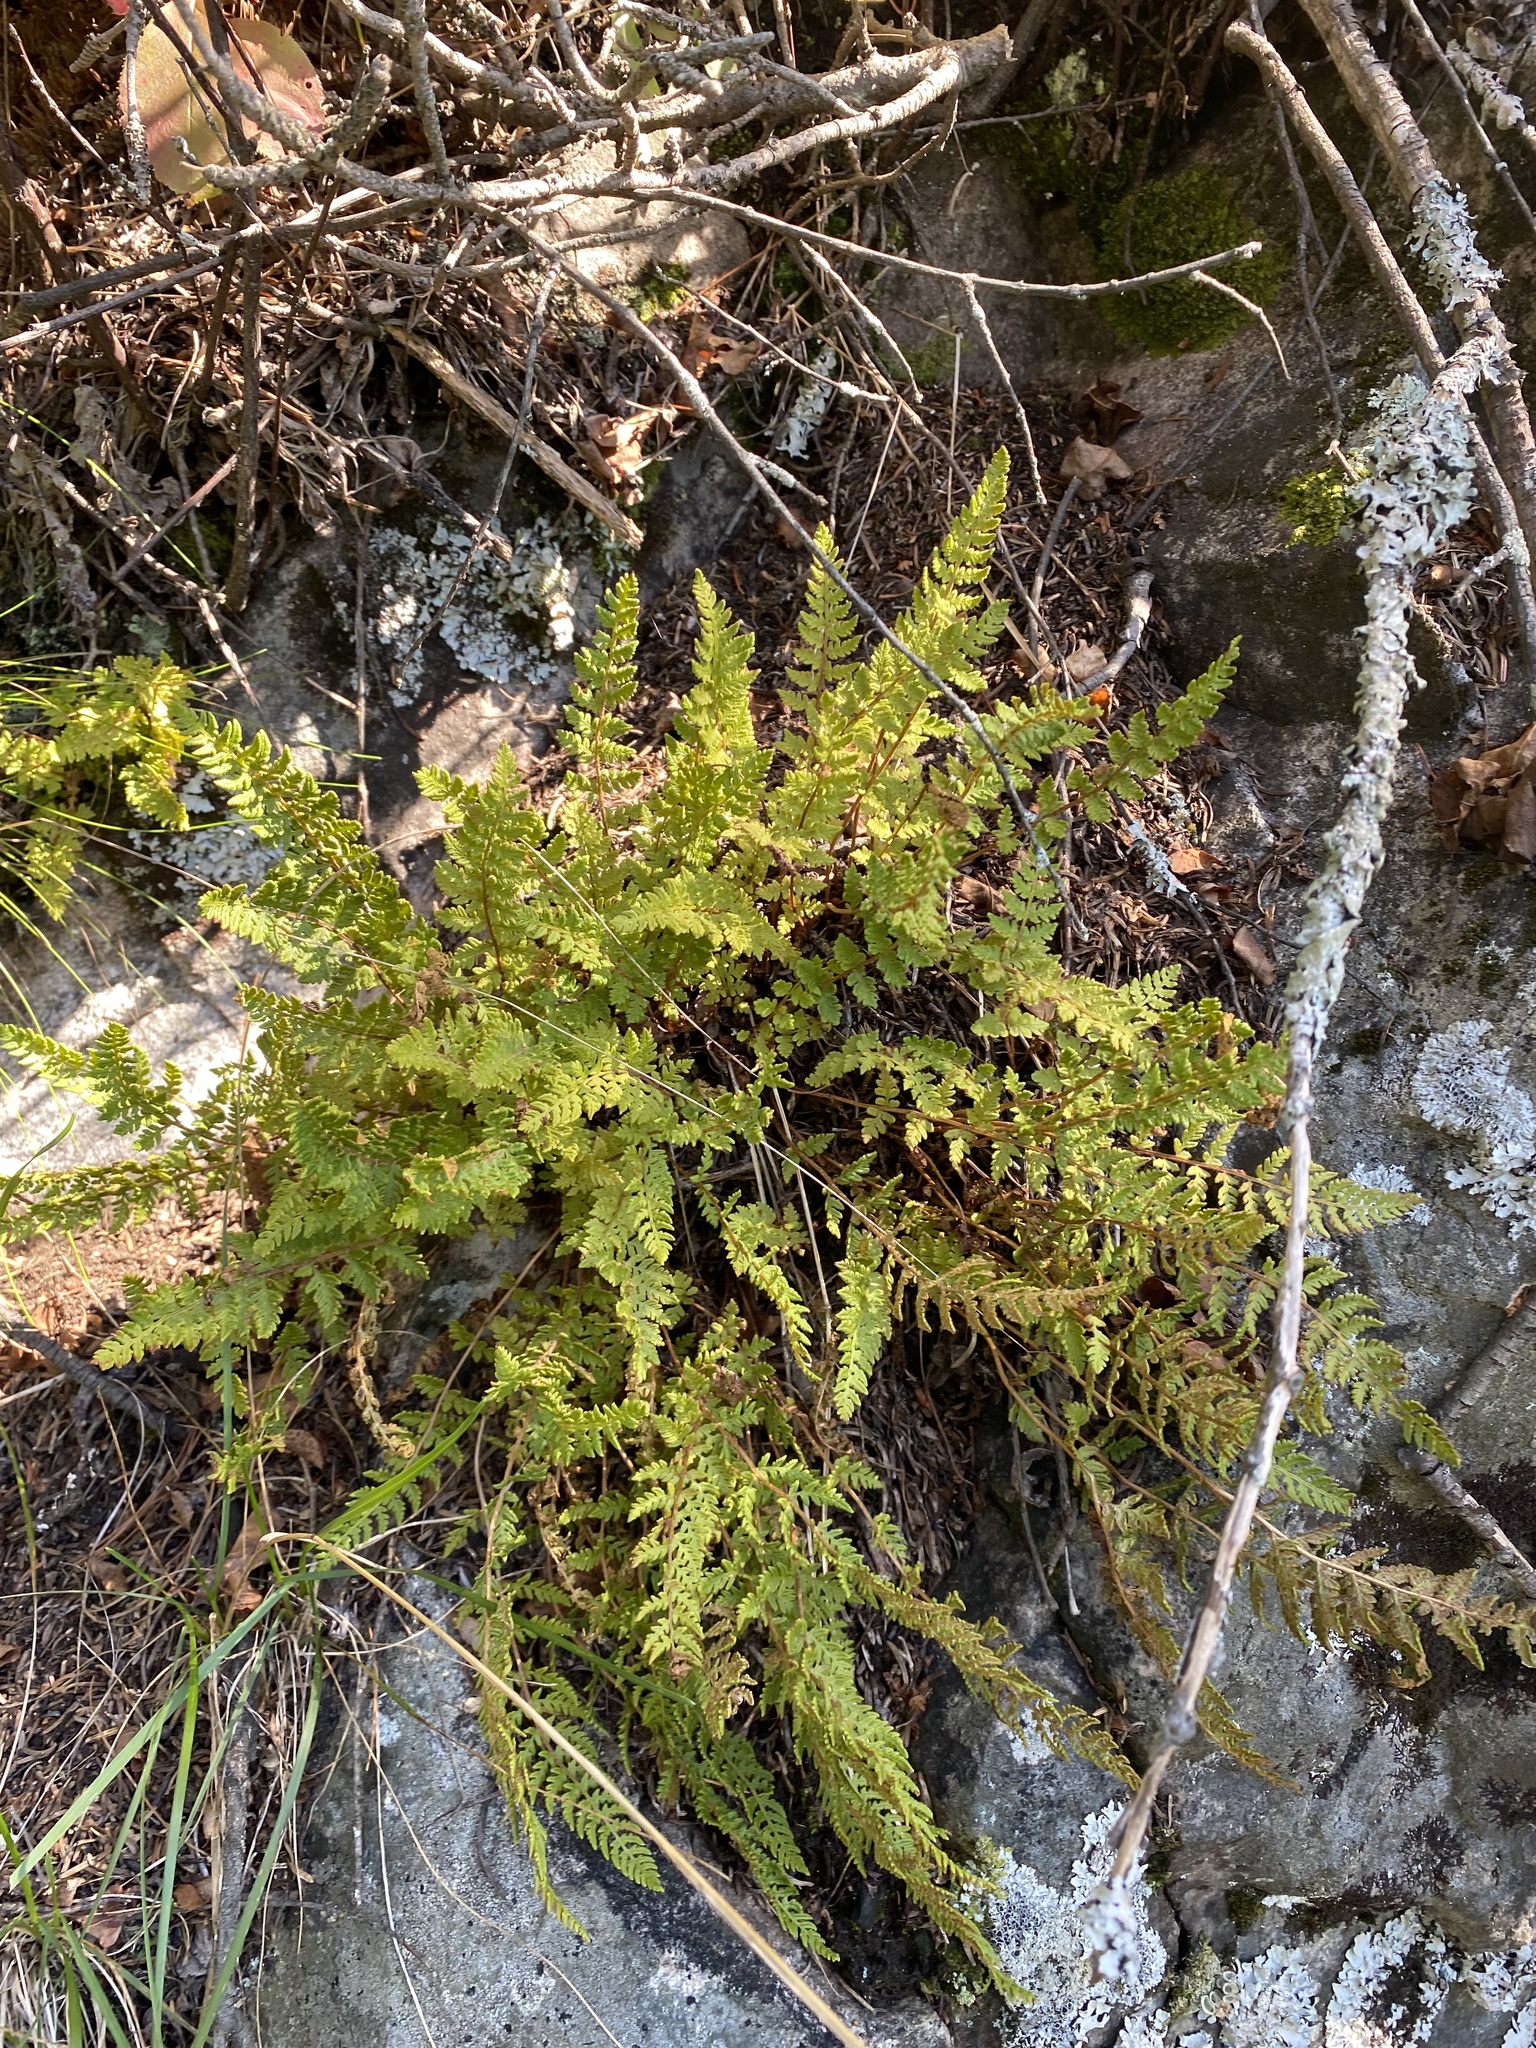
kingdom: Plantae
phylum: Tracheophyta
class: Polypodiopsida
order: Polypodiales
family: Woodsiaceae
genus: Woodsia
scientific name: Woodsia ilvensis
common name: Fragrant woodsia
